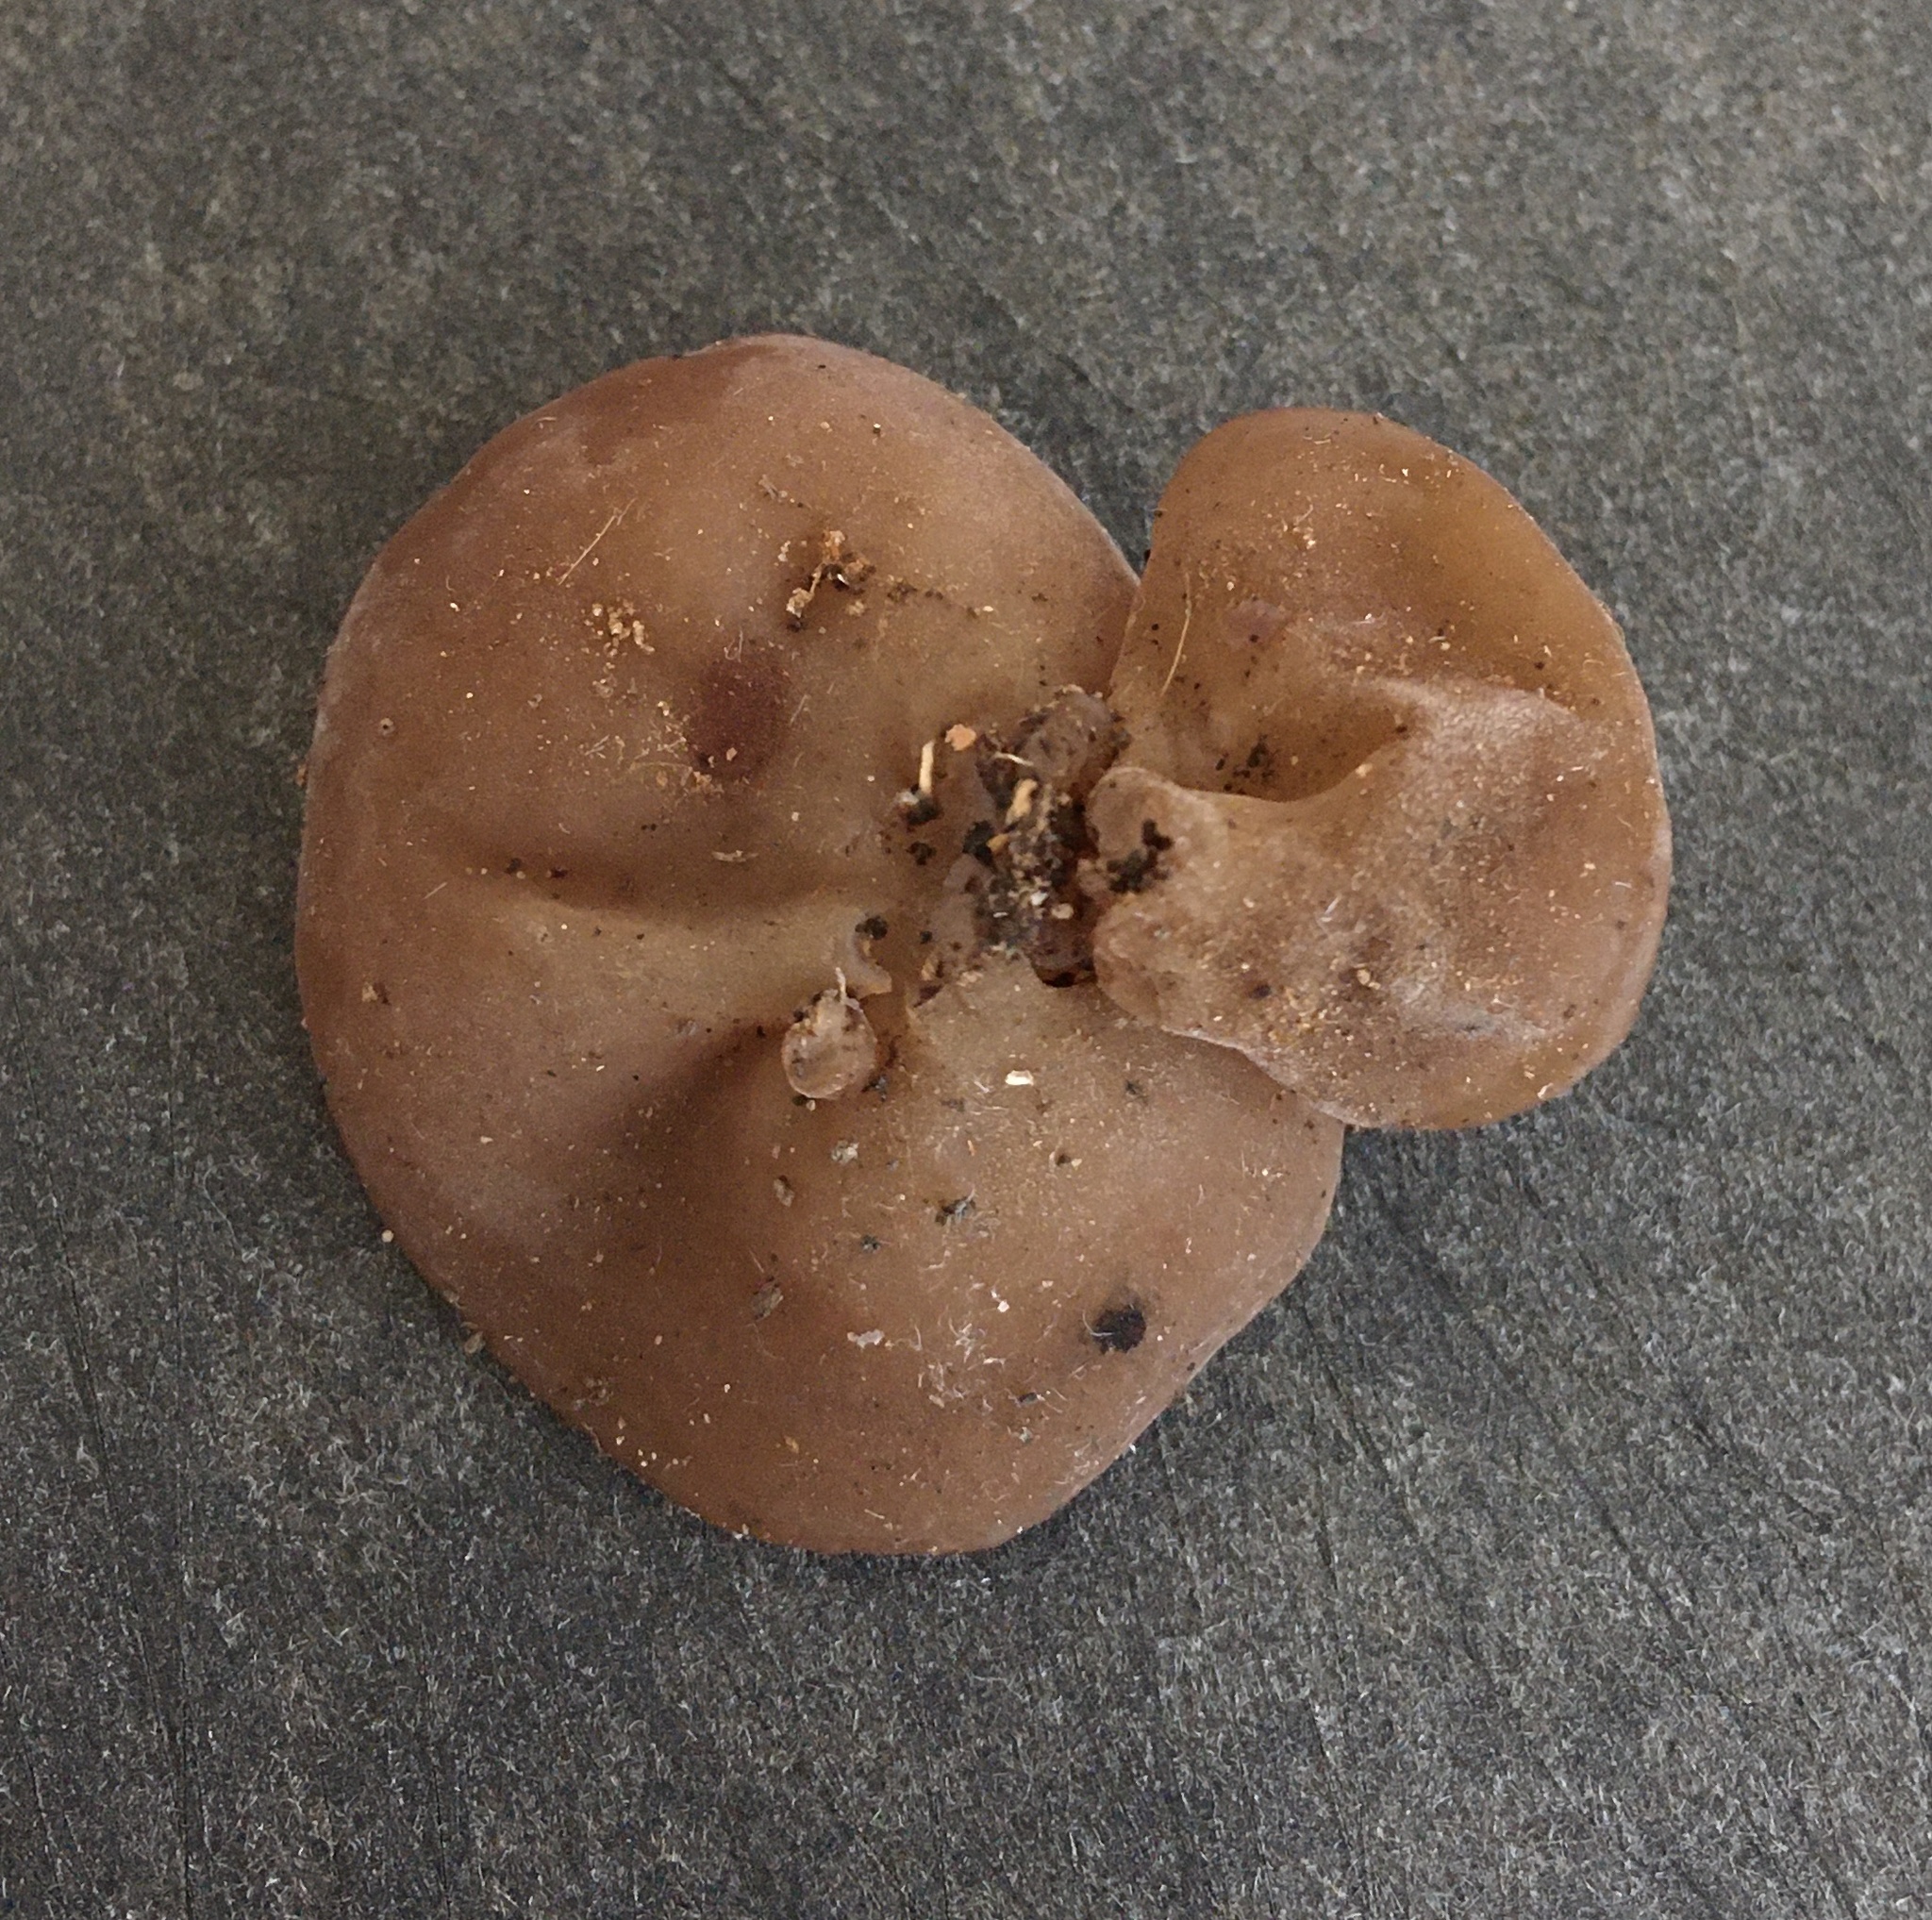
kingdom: Fungi
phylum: Basidiomycota
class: Agaricomycetes
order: Auriculariales
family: Auriculariaceae
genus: Auricularia
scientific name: Auricularia angiospermarum
